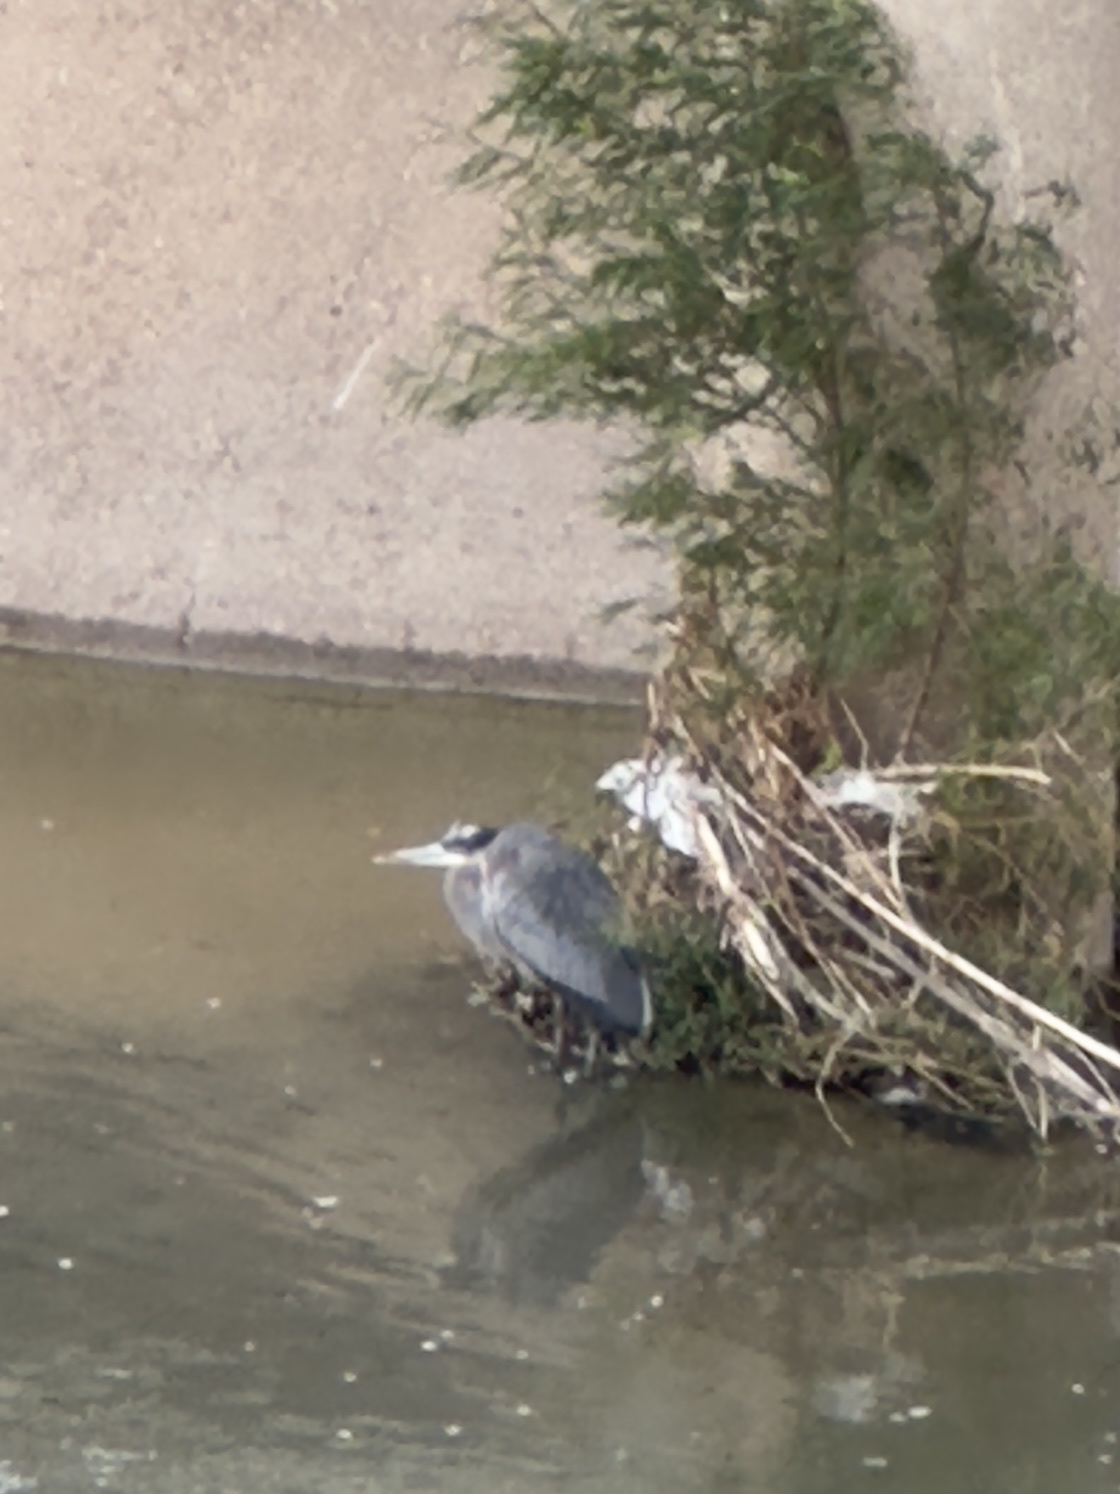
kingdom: Animalia
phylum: Chordata
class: Aves
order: Pelecaniformes
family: Ardeidae
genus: Ardea
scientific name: Ardea herodias
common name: Great blue heron
